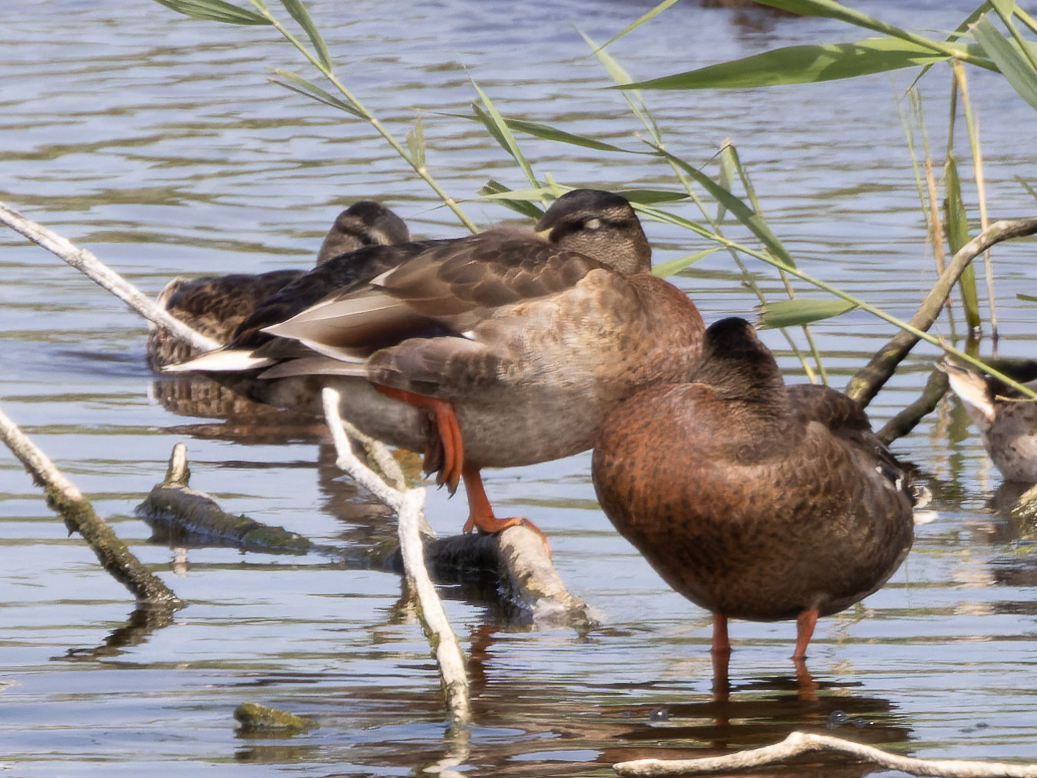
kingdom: Animalia
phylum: Chordata
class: Aves
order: Anseriformes
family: Anatidae
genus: Anas
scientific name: Anas platyrhynchos
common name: Mallard
